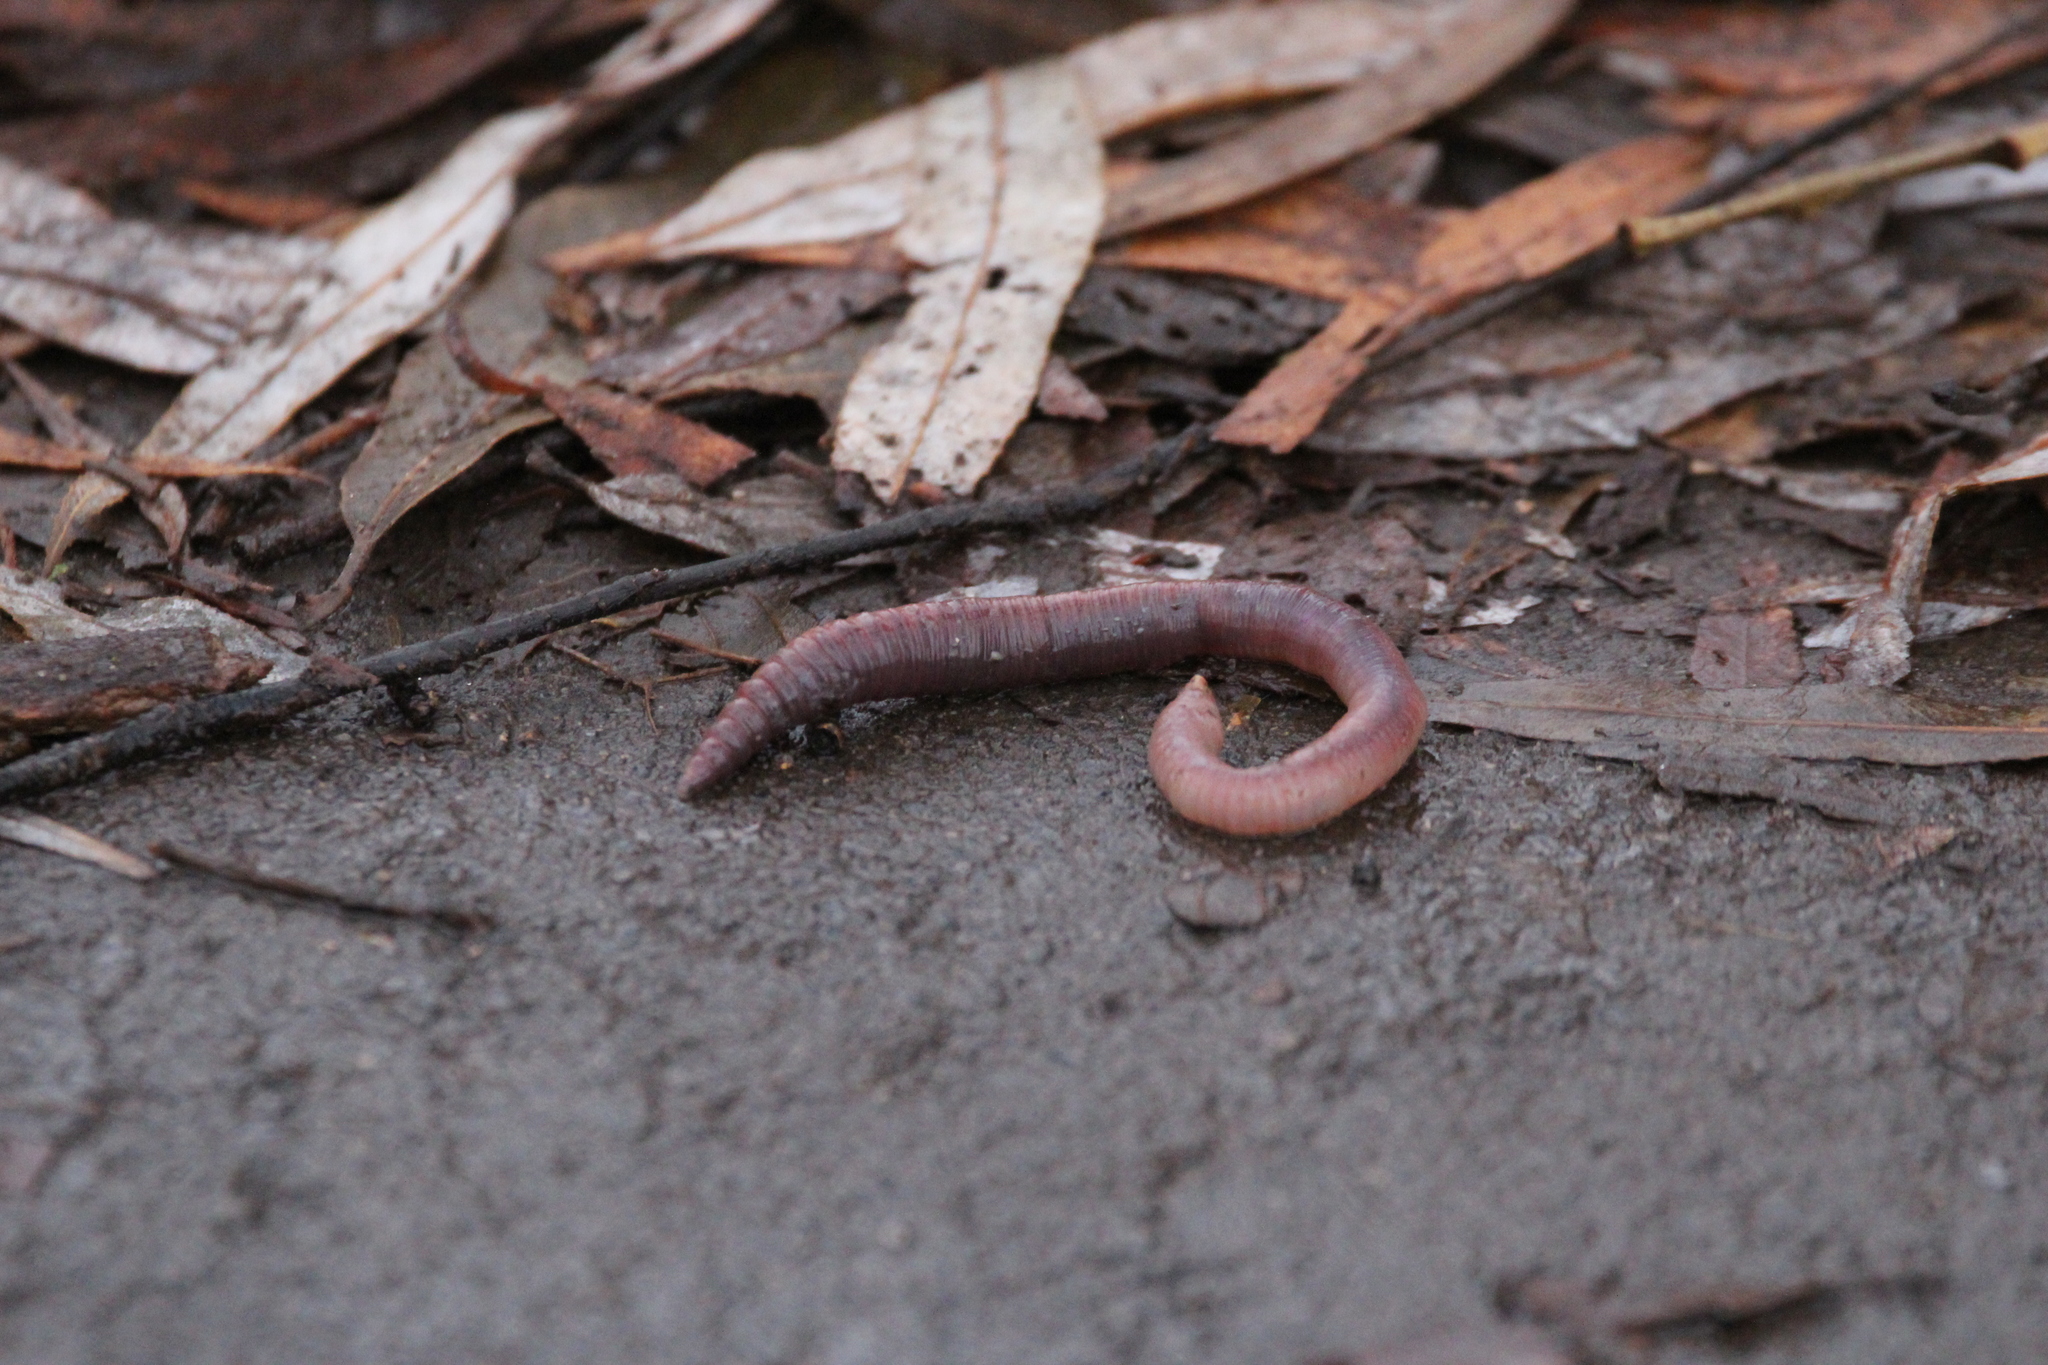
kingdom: Animalia
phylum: Annelida
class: Clitellata
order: Crassiclitellata
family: Lumbricidae
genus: Lumbricus
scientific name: Lumbricus terrestris
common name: Common earthworm
